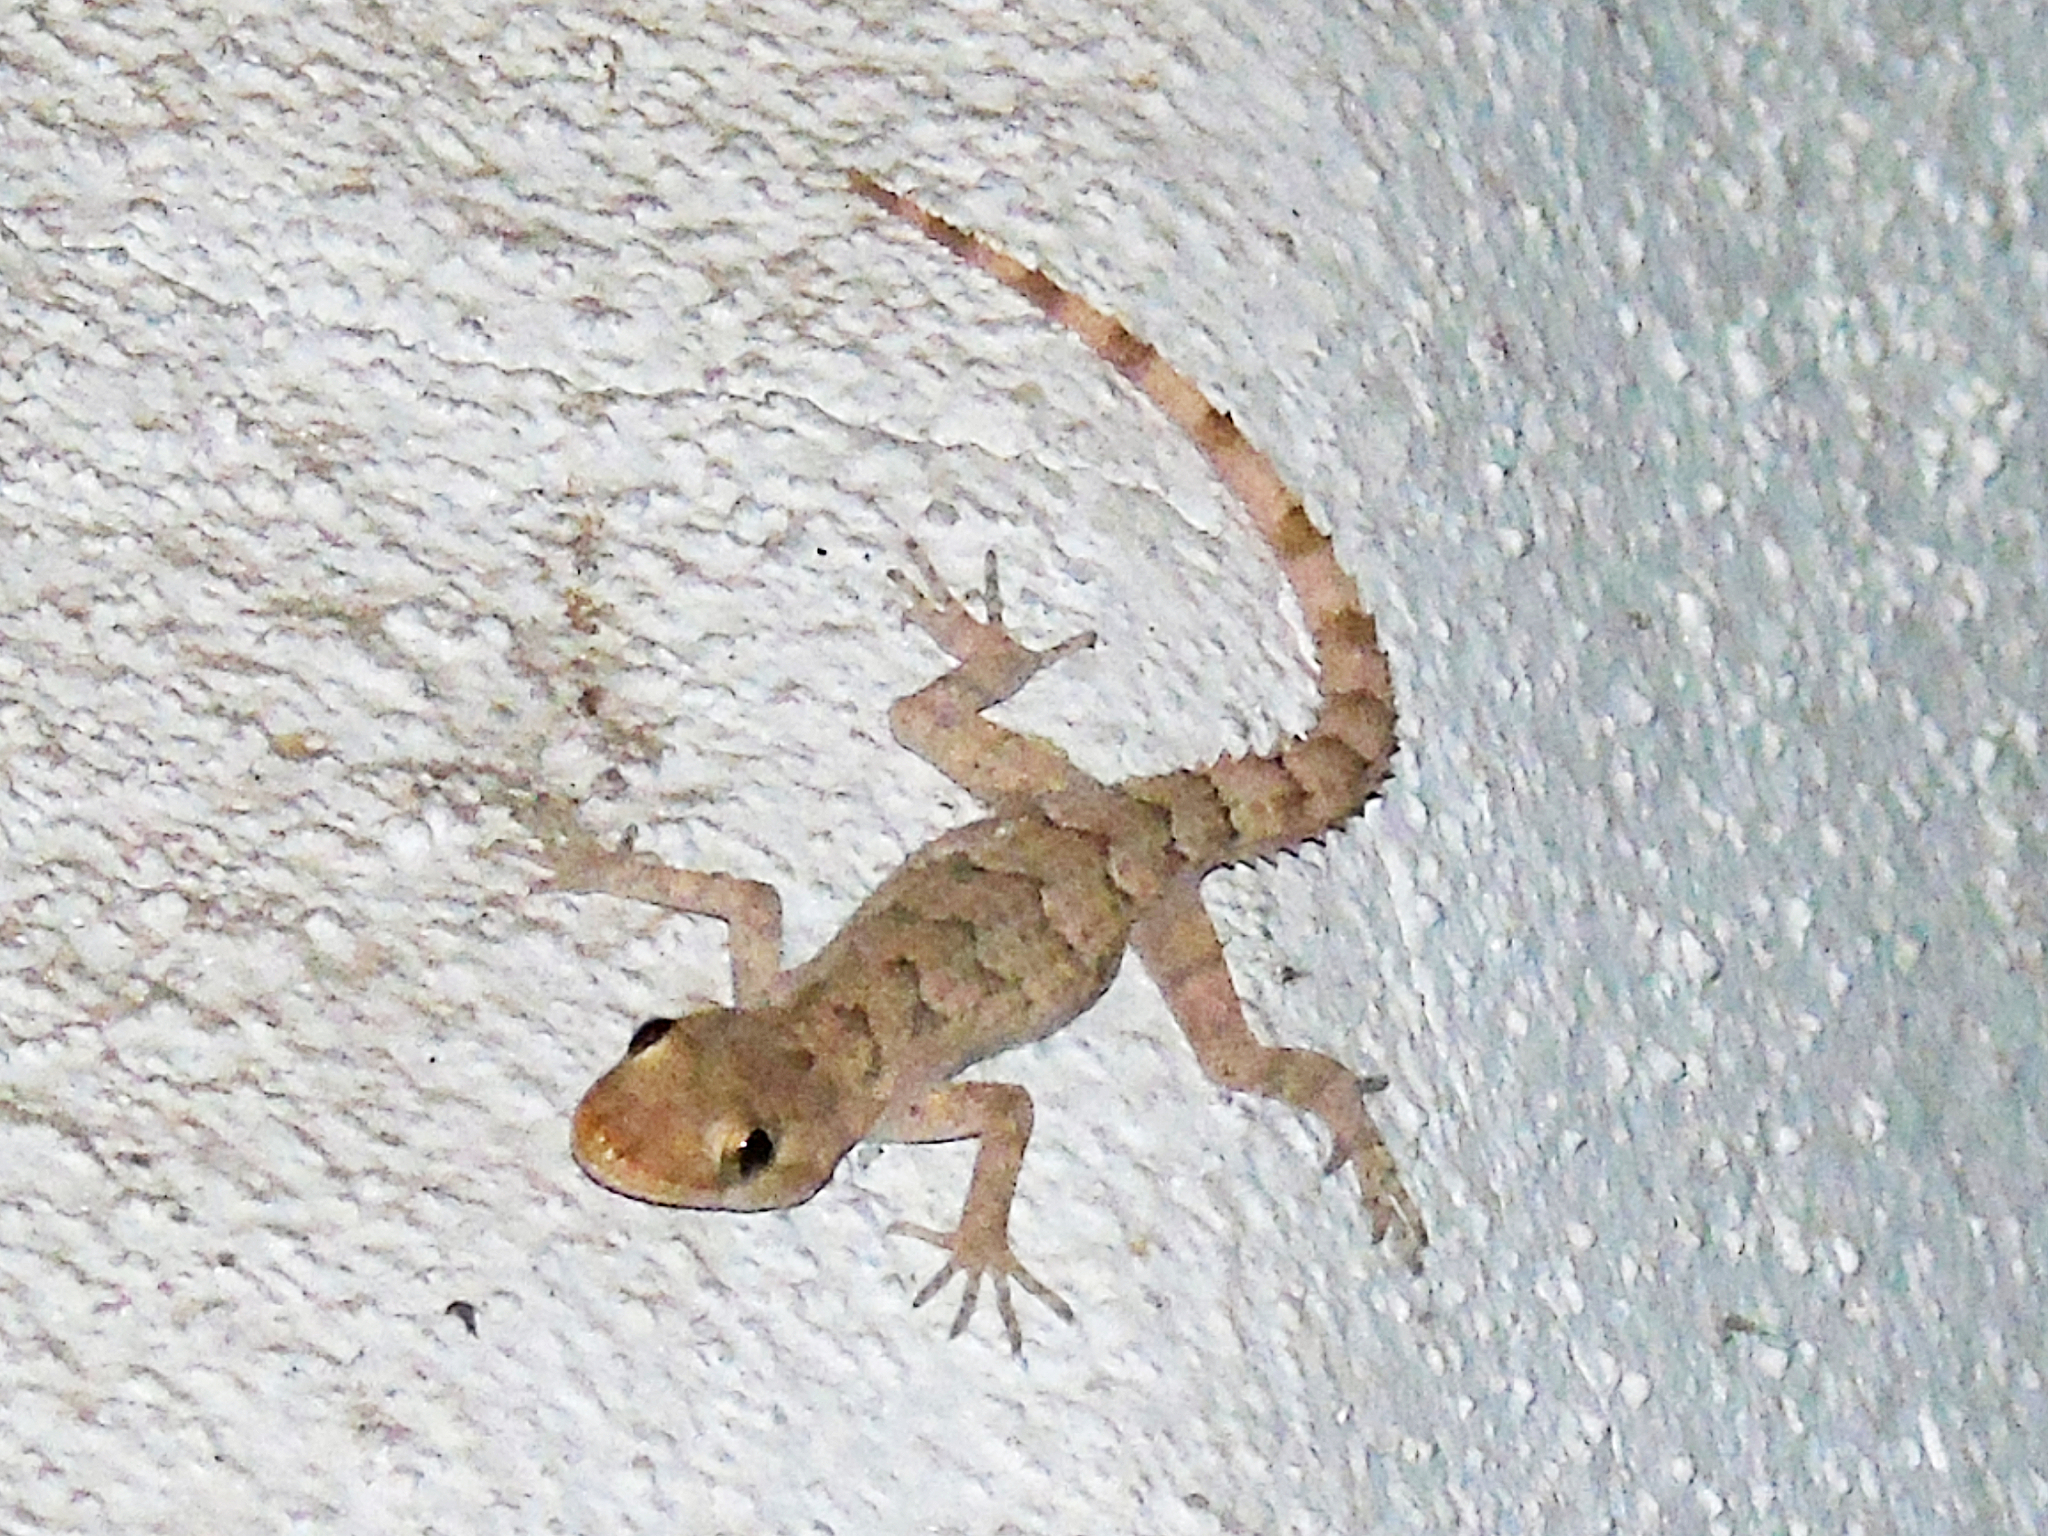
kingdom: Animalia
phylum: Chordata
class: Squamata
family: Gekkonidae
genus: Mediodactylus
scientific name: Mediodactylus heterocercus
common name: Asia minor thin-toed gecko
